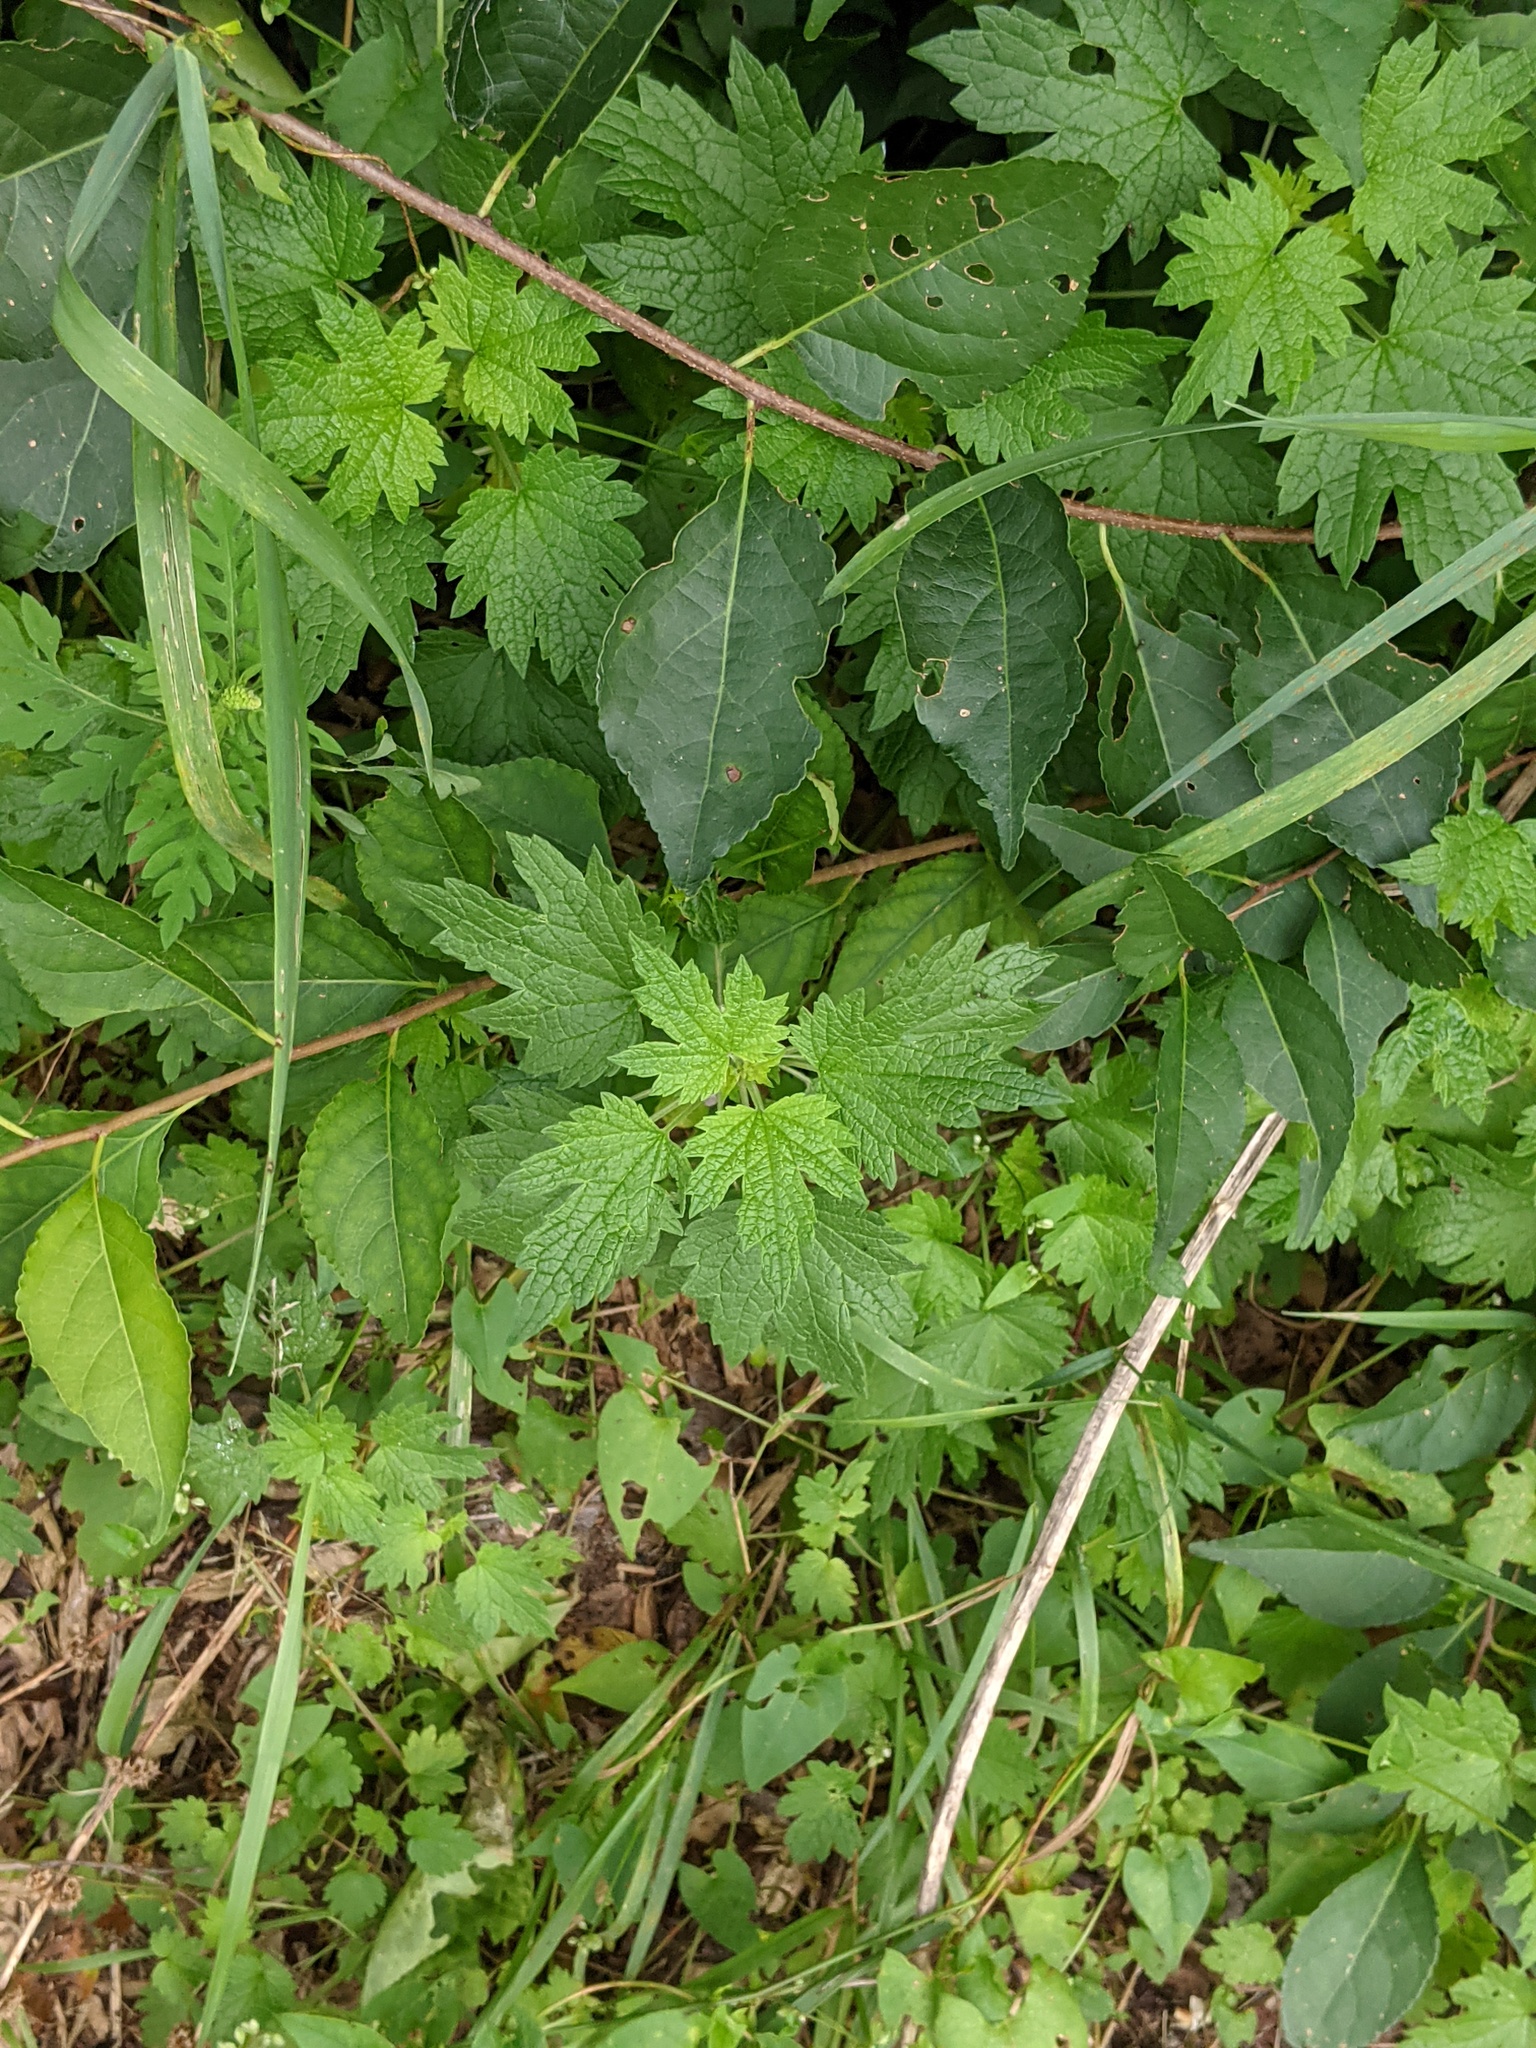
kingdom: Plantae
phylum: Tracheophyta
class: Magnoliopsida
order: Lamiales
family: Lamiaceae
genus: Leonurus
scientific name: Leonurus cardiaca
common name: Motherwort
